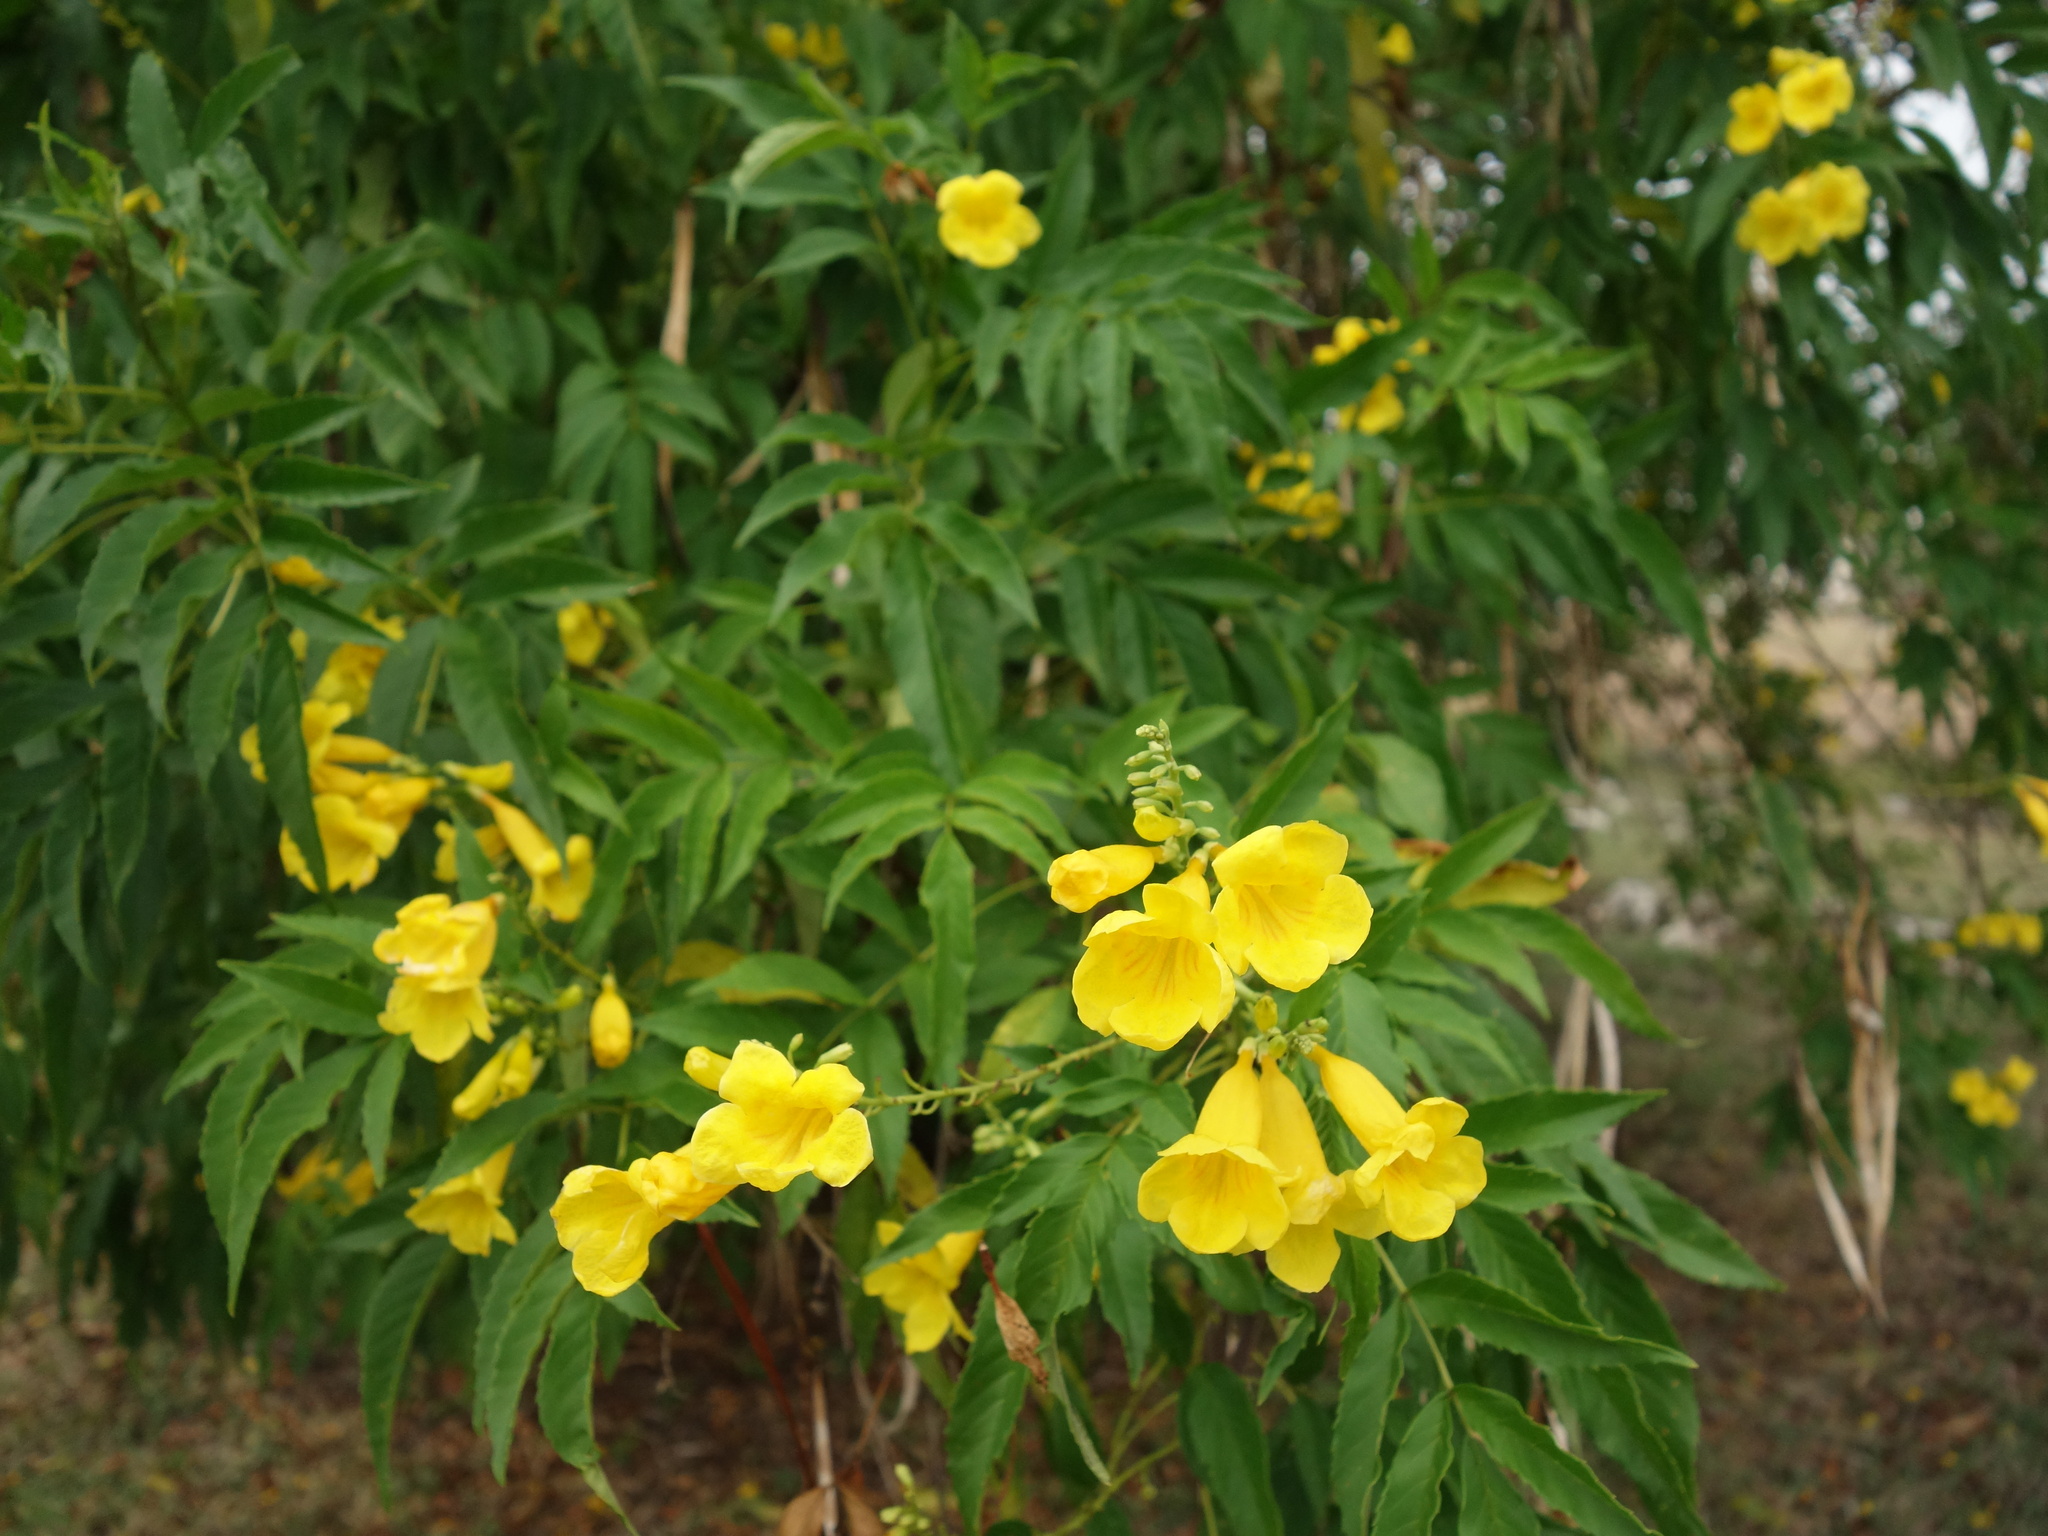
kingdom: Plantae
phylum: Tracheophyta
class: Magnoliopsida
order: Lamiales
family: Bignoniaceae
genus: Tecoma
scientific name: Tecoma stans
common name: Yellow trumpetbush
